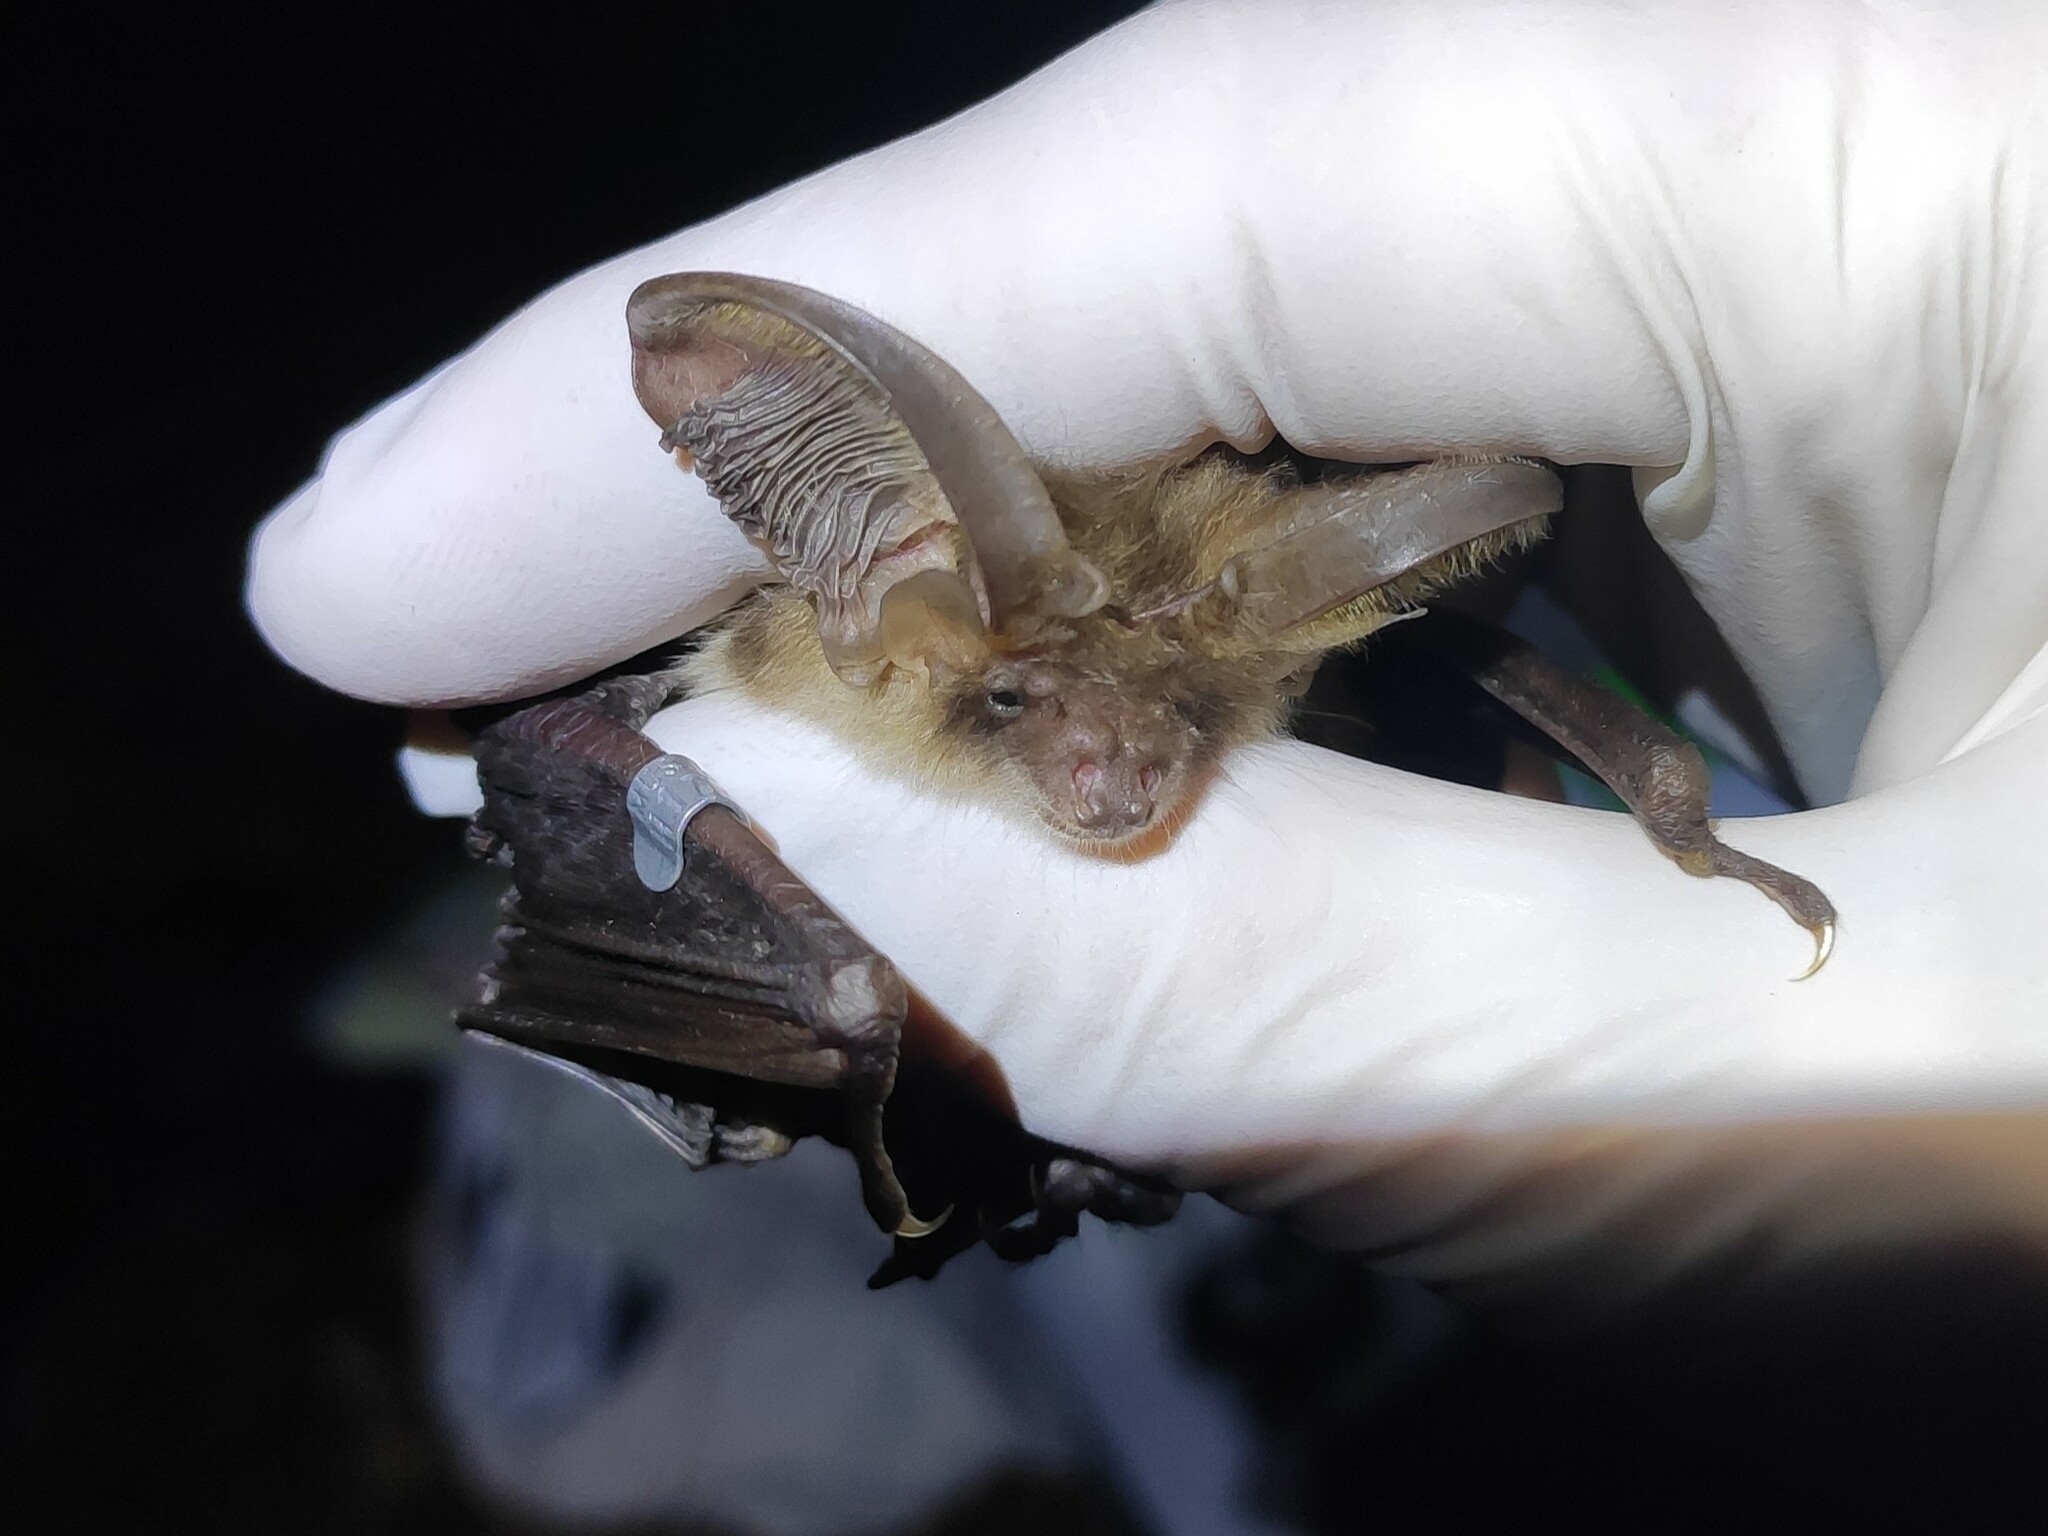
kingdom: Animalia
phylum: Chordata
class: Mammalia
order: Chiroptera
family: Vespertilionidae
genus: Plecotus
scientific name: Plecotus auritus
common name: Brown long-eared bat
